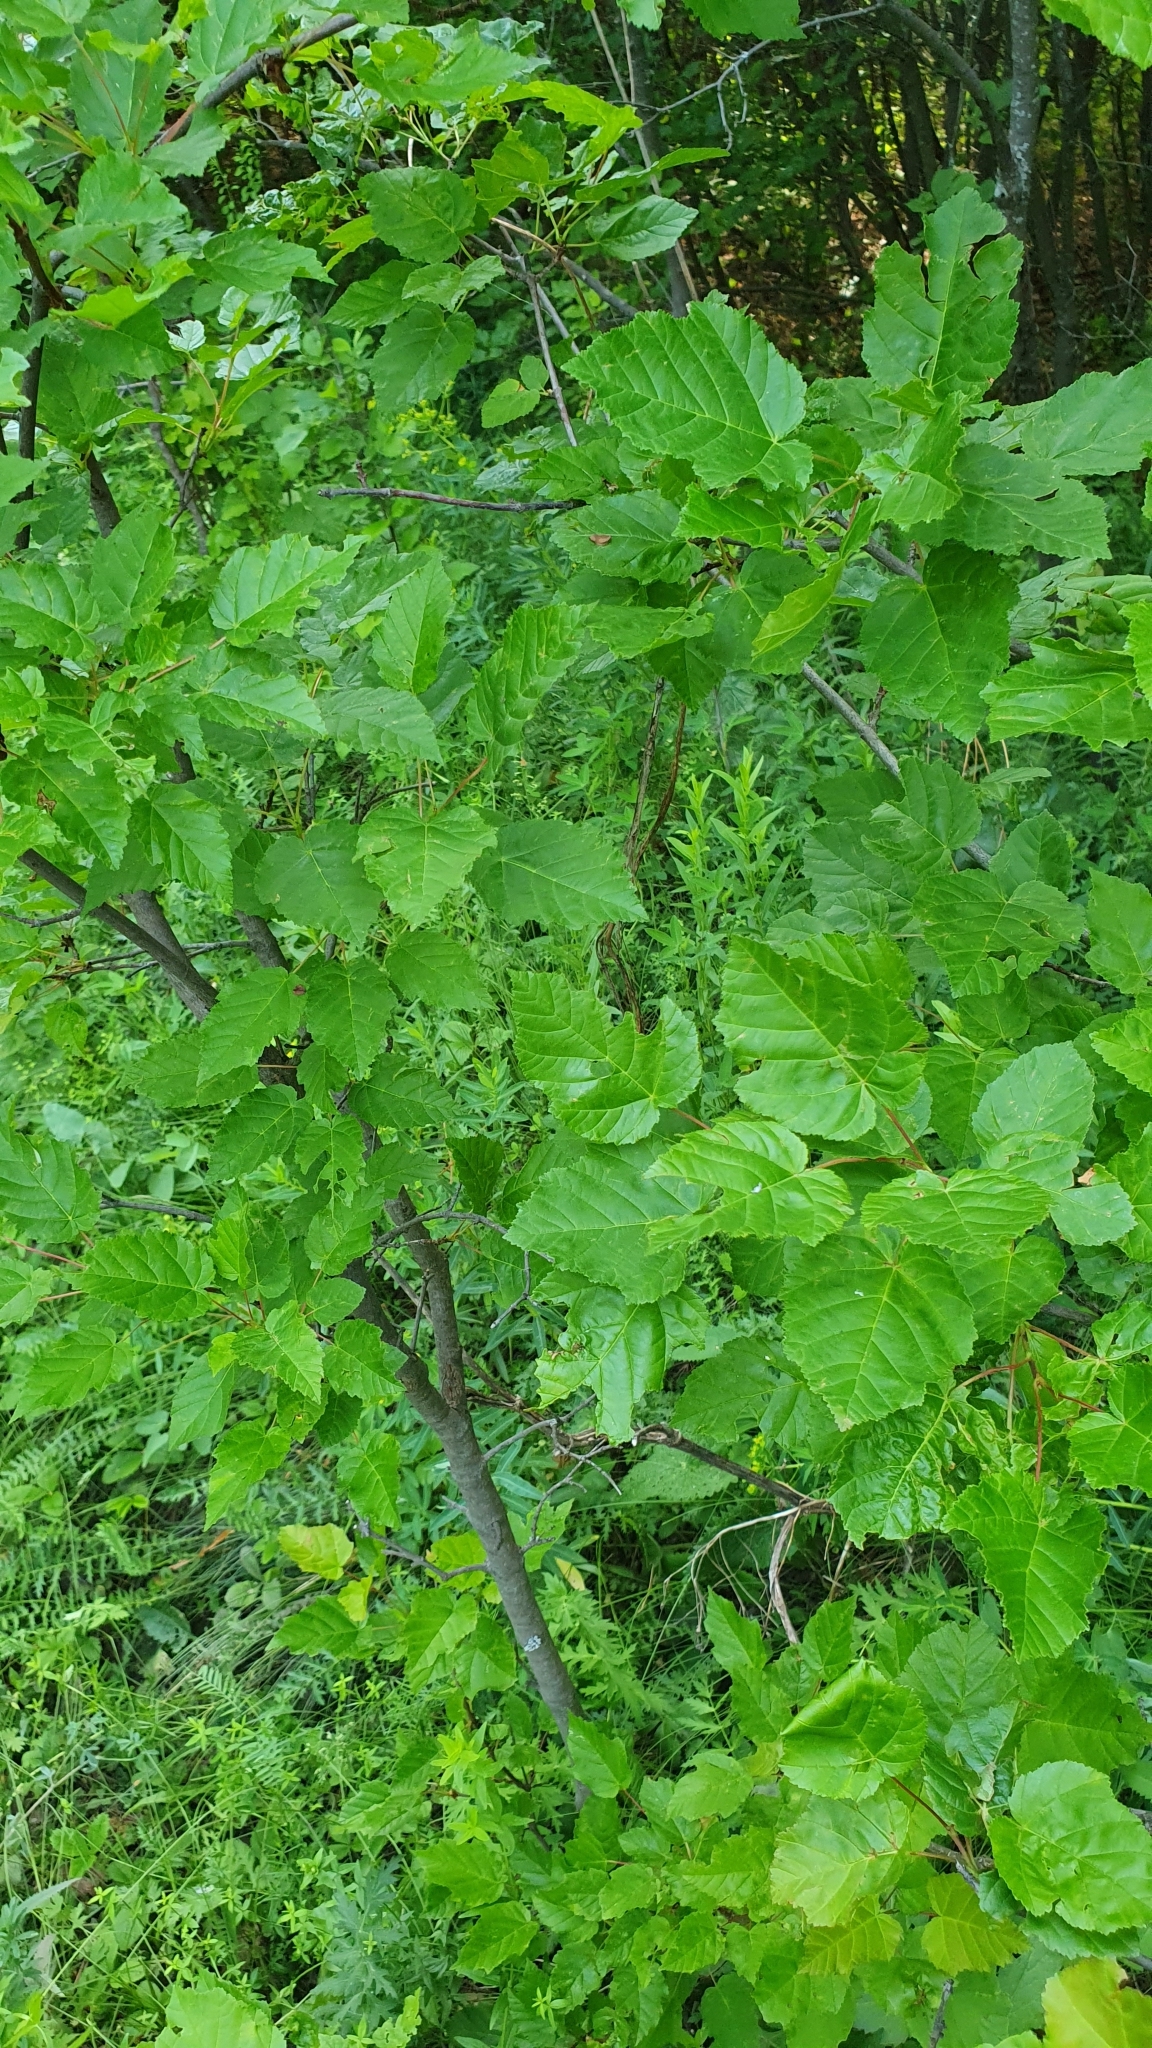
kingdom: Plantae
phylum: Tracheophyta
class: Magnoliopsida
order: Sapindales
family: Sapindaceae
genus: Acer
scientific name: Acer tataricum
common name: Tartar maple
